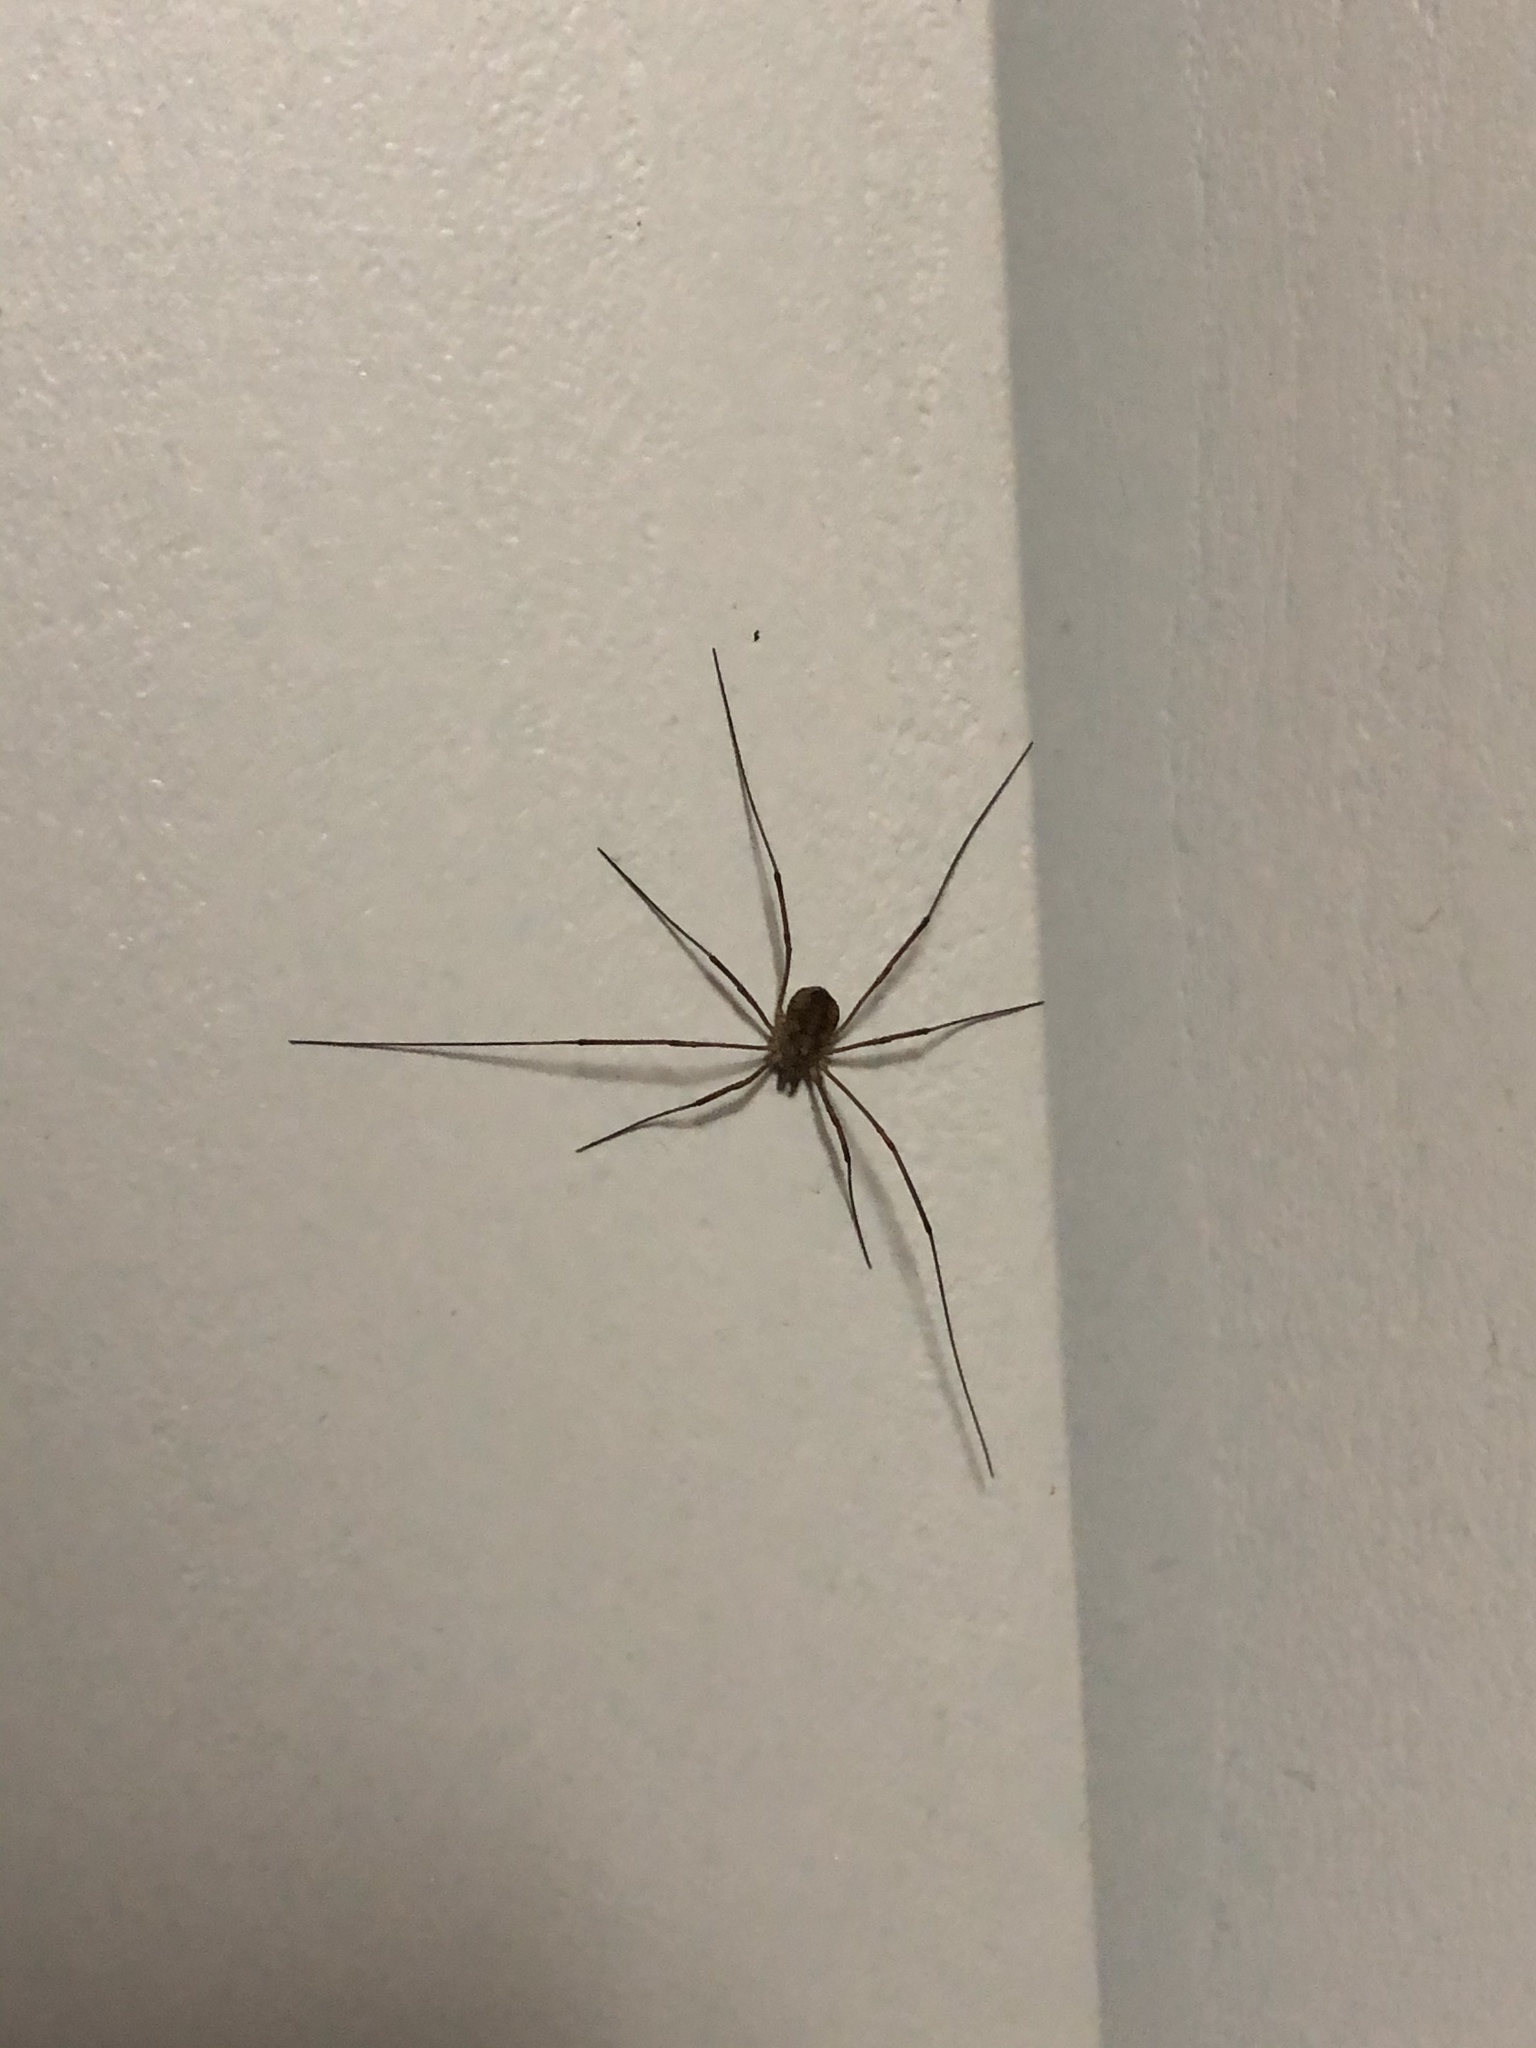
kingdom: Animalia
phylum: Arthropoda
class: Arachnida
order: Opiliones
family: Phalangiidae
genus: Phalangium
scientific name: Phalangium opilio
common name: Daddy longleg
